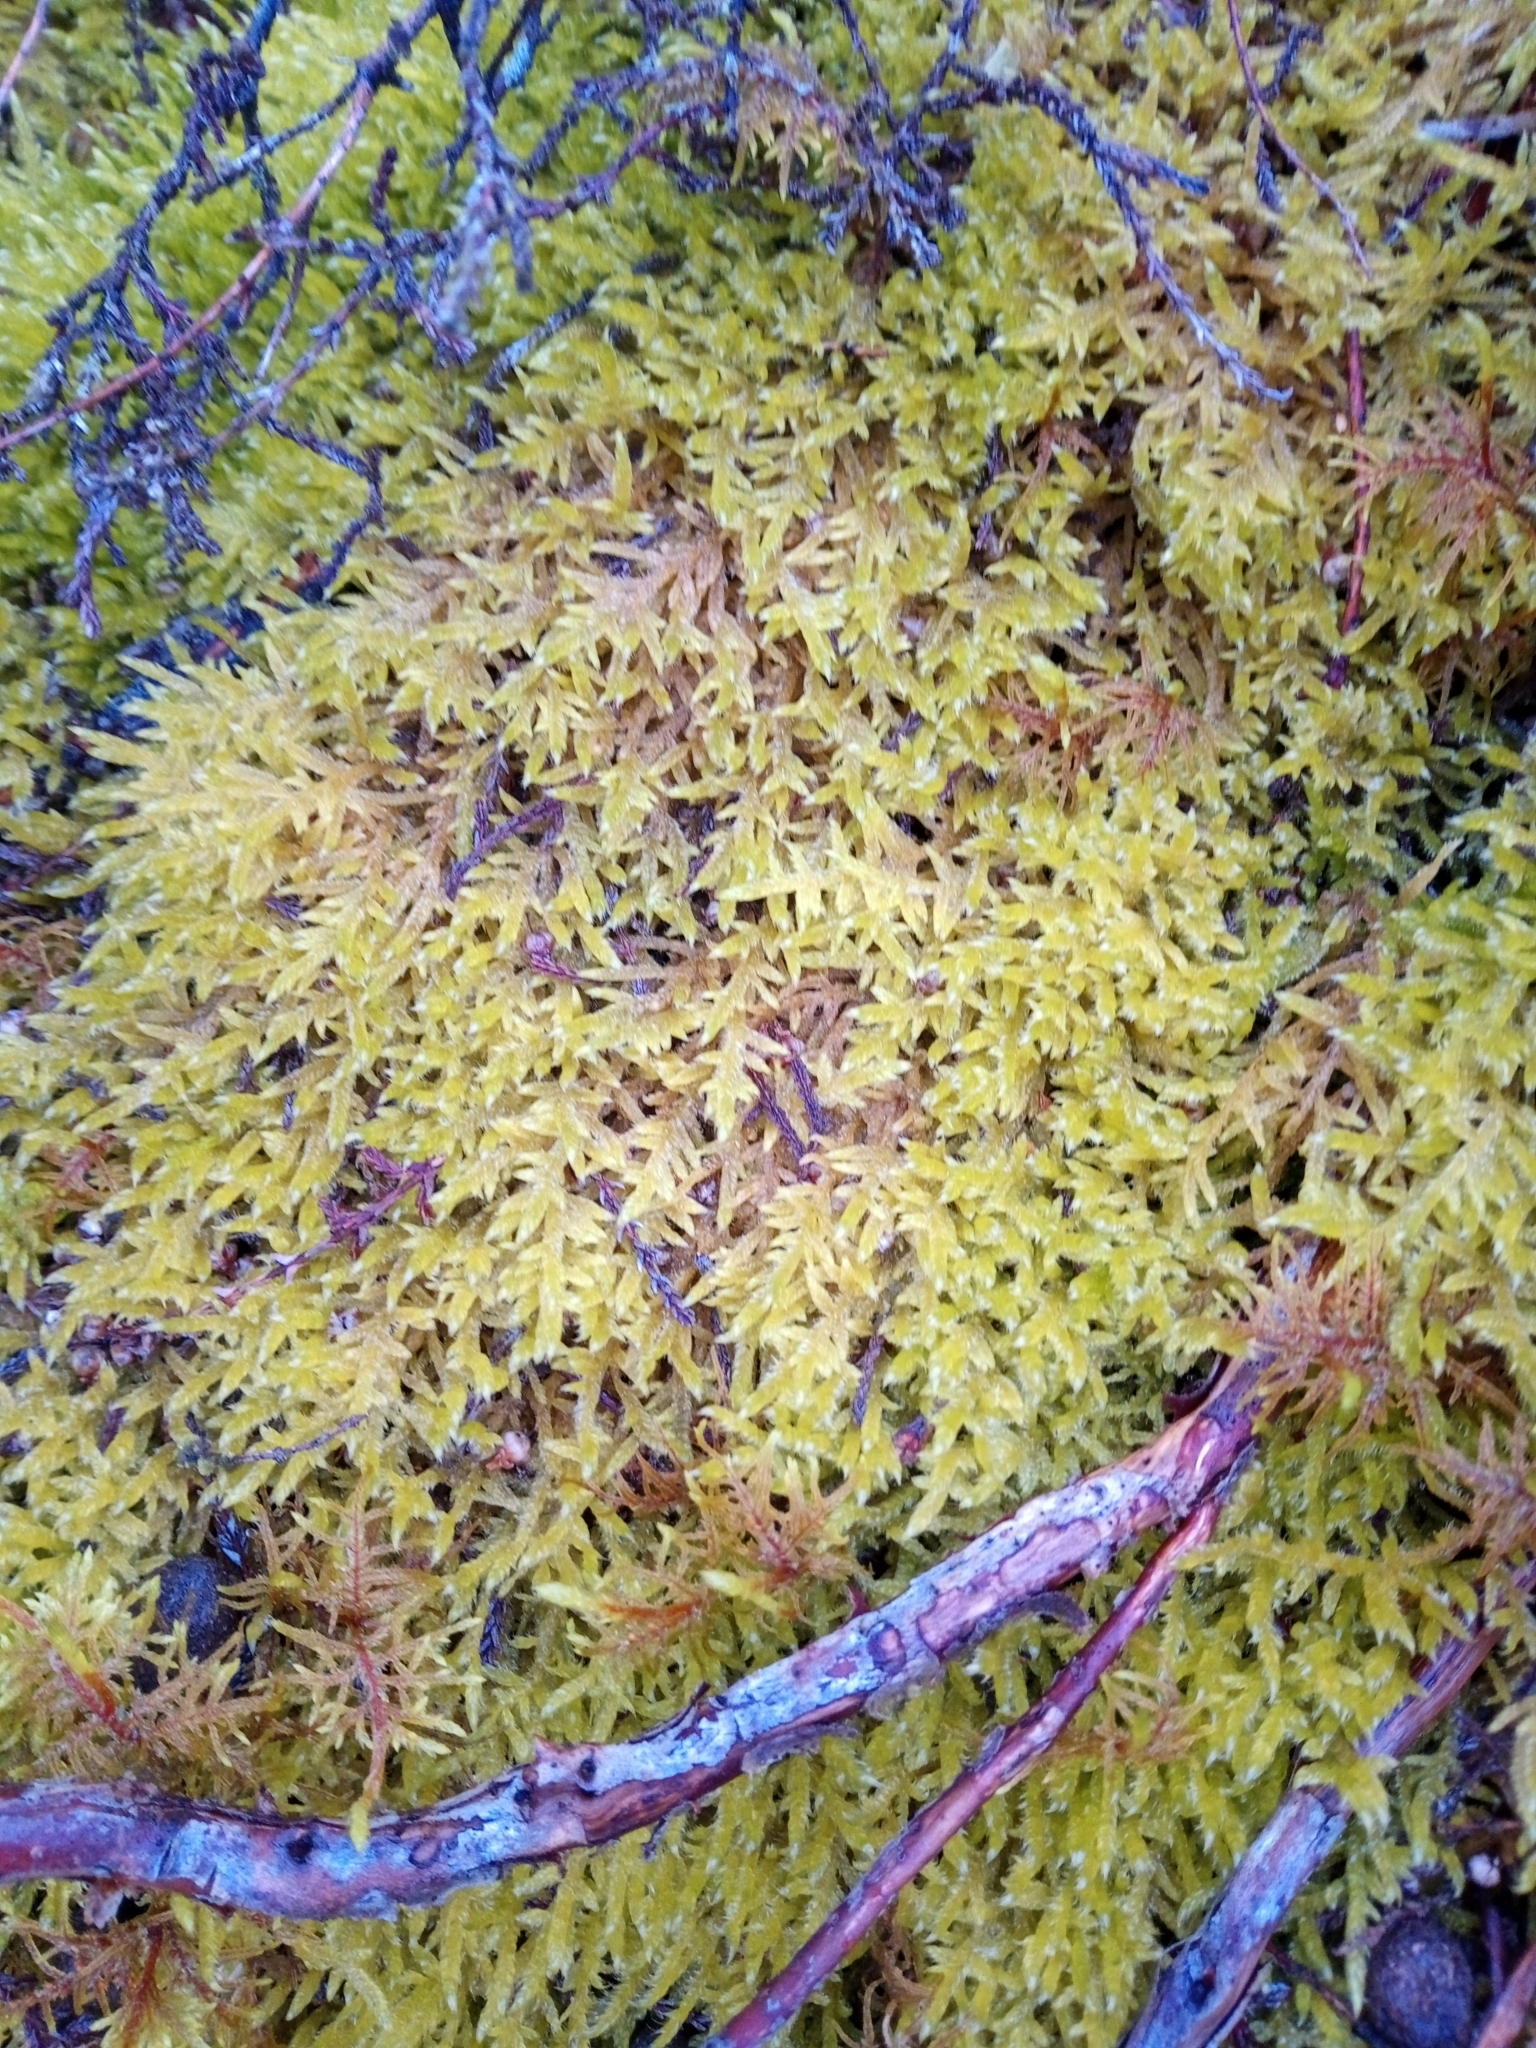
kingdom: Plantae
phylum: Bryophyta
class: Bryopsida
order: Hypnales
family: Hypnaceae
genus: Hypnum
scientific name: Hypnum jutlandicum
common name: Heath plait-moss
